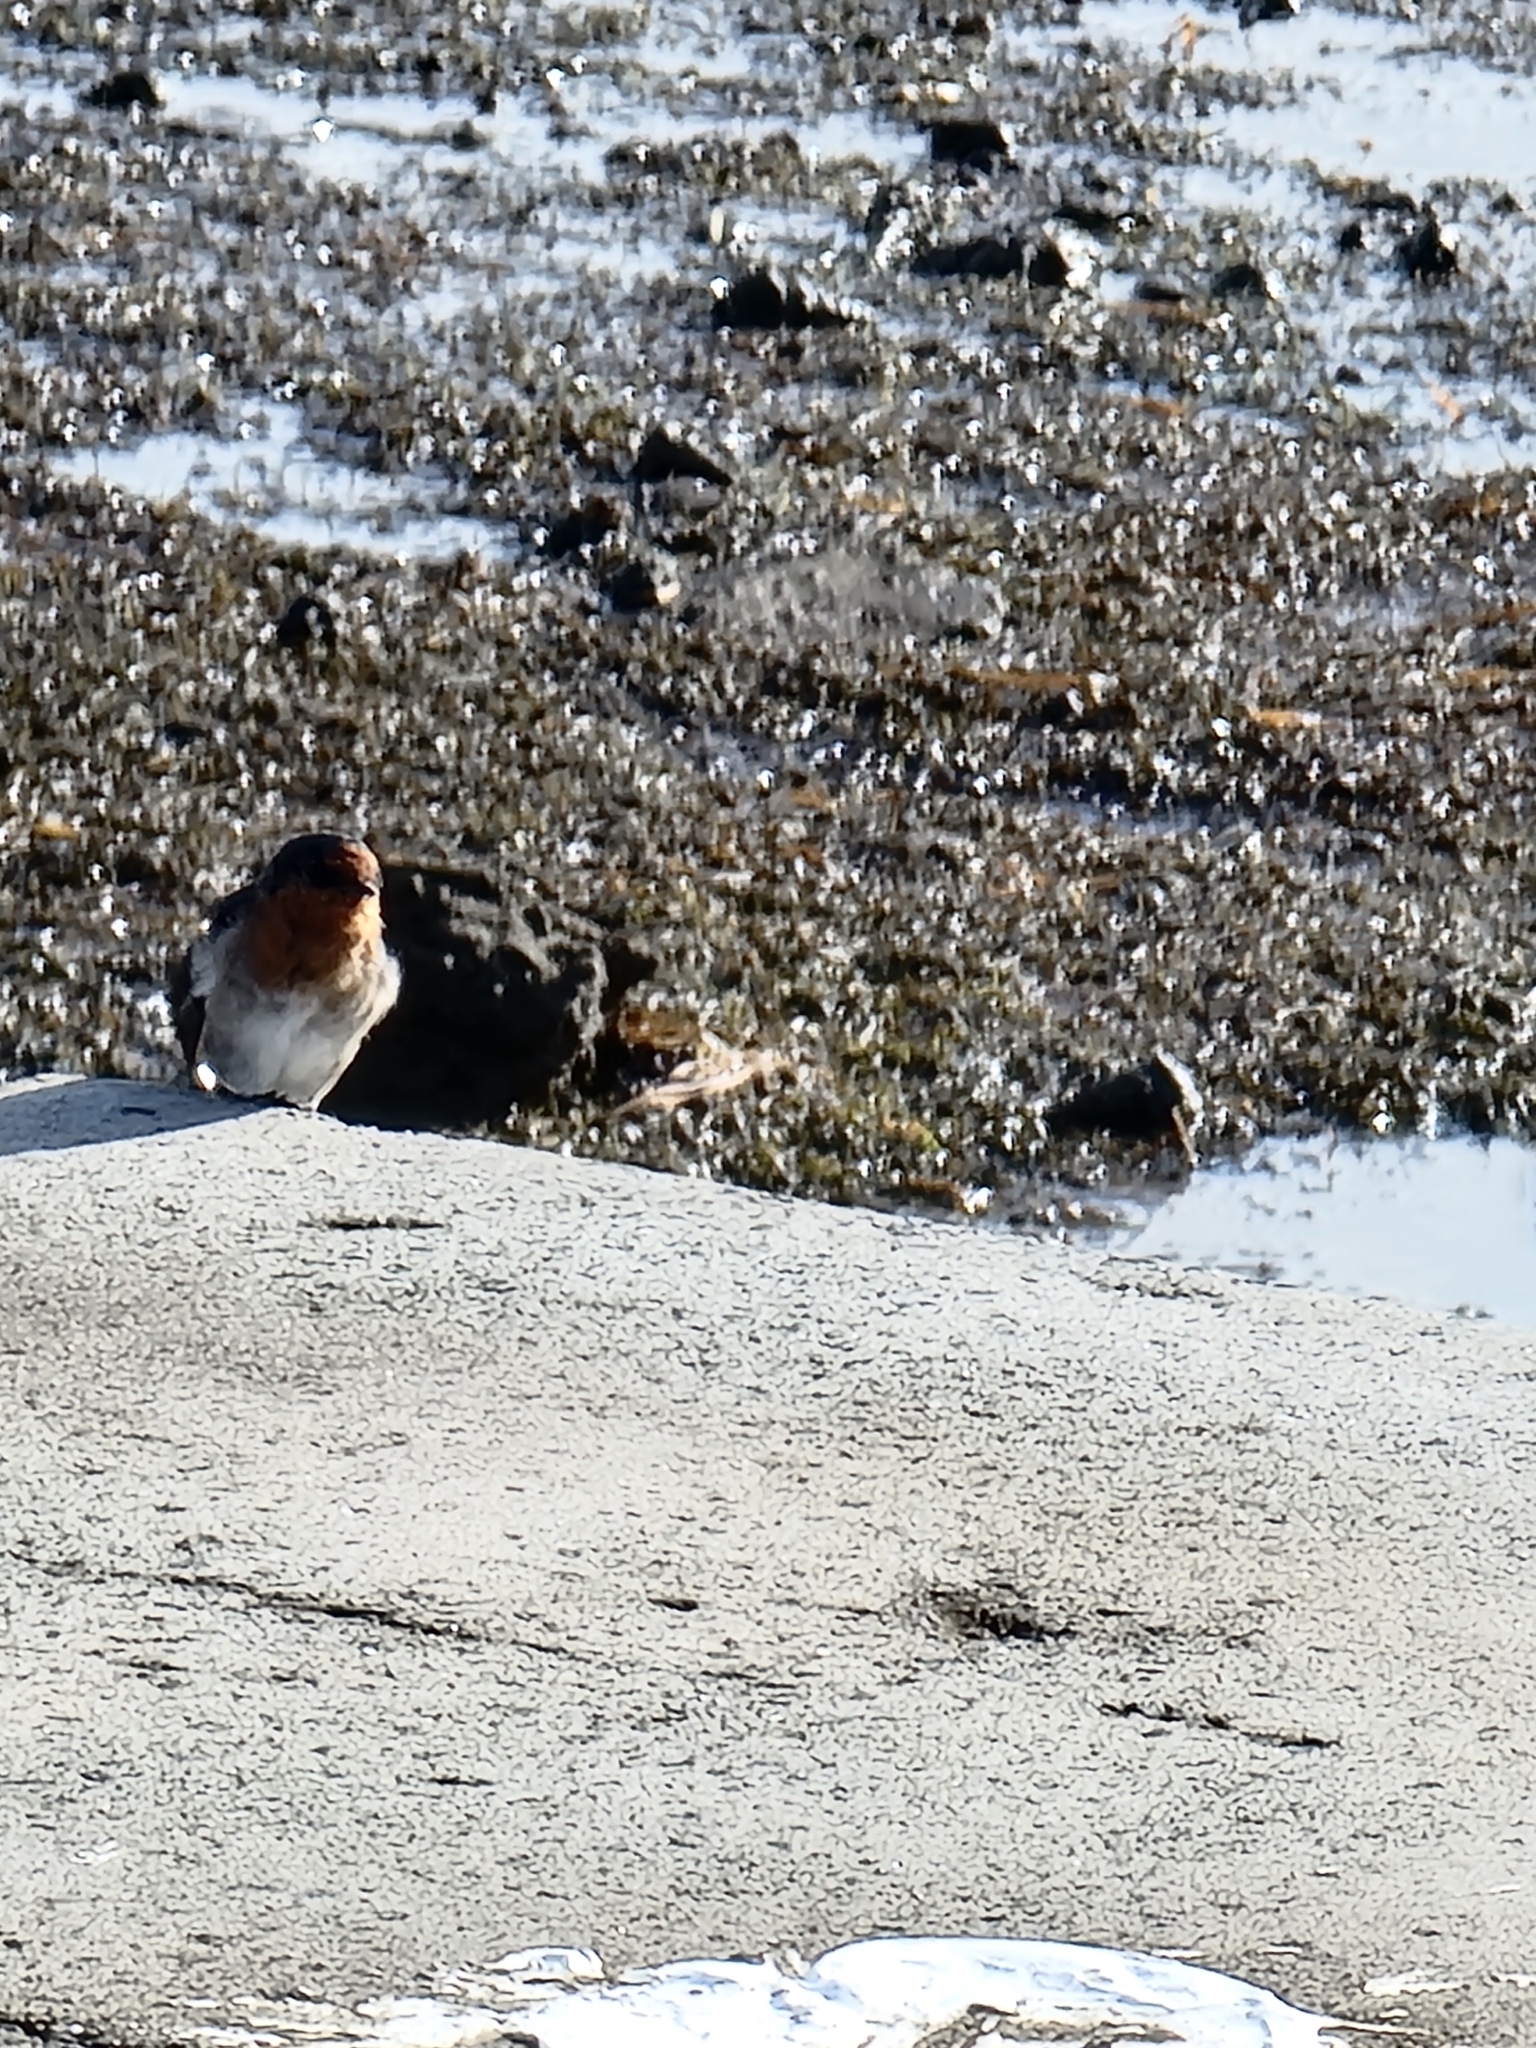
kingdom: Animalia
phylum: Chordata
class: Aves
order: Passeriformes
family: Hirundinidae
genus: Hirundo
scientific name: Hirundo neoxena
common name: Welcome swallow
